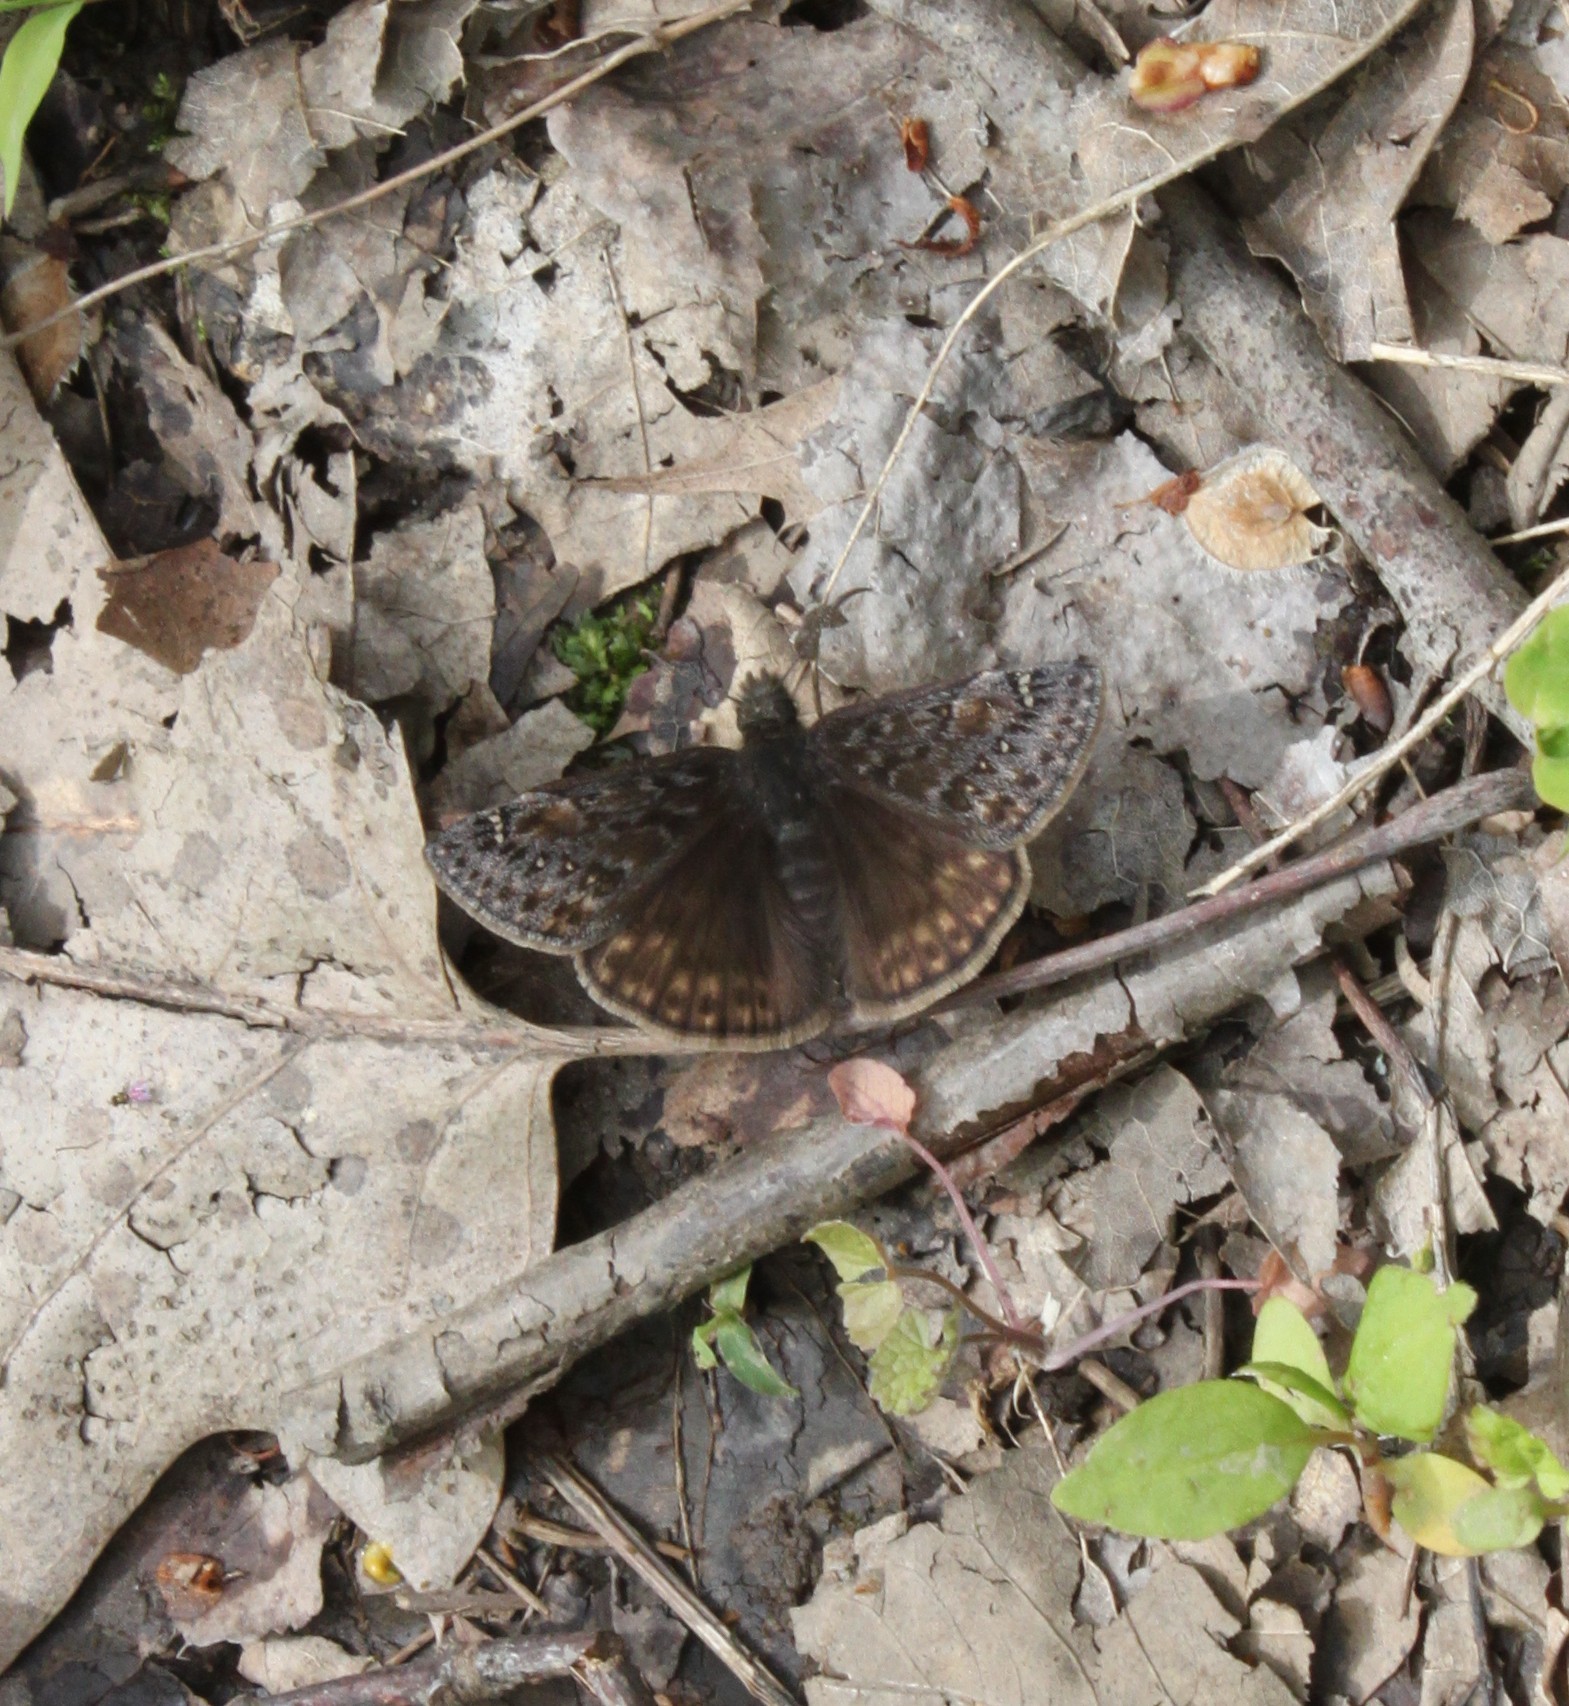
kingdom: Animalia
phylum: Arthropoda
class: Insecta
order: Lepidoptera
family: Hesperiidae
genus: Erynnis
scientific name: Erynnis juvenalis
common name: Juvenal's duskywing
